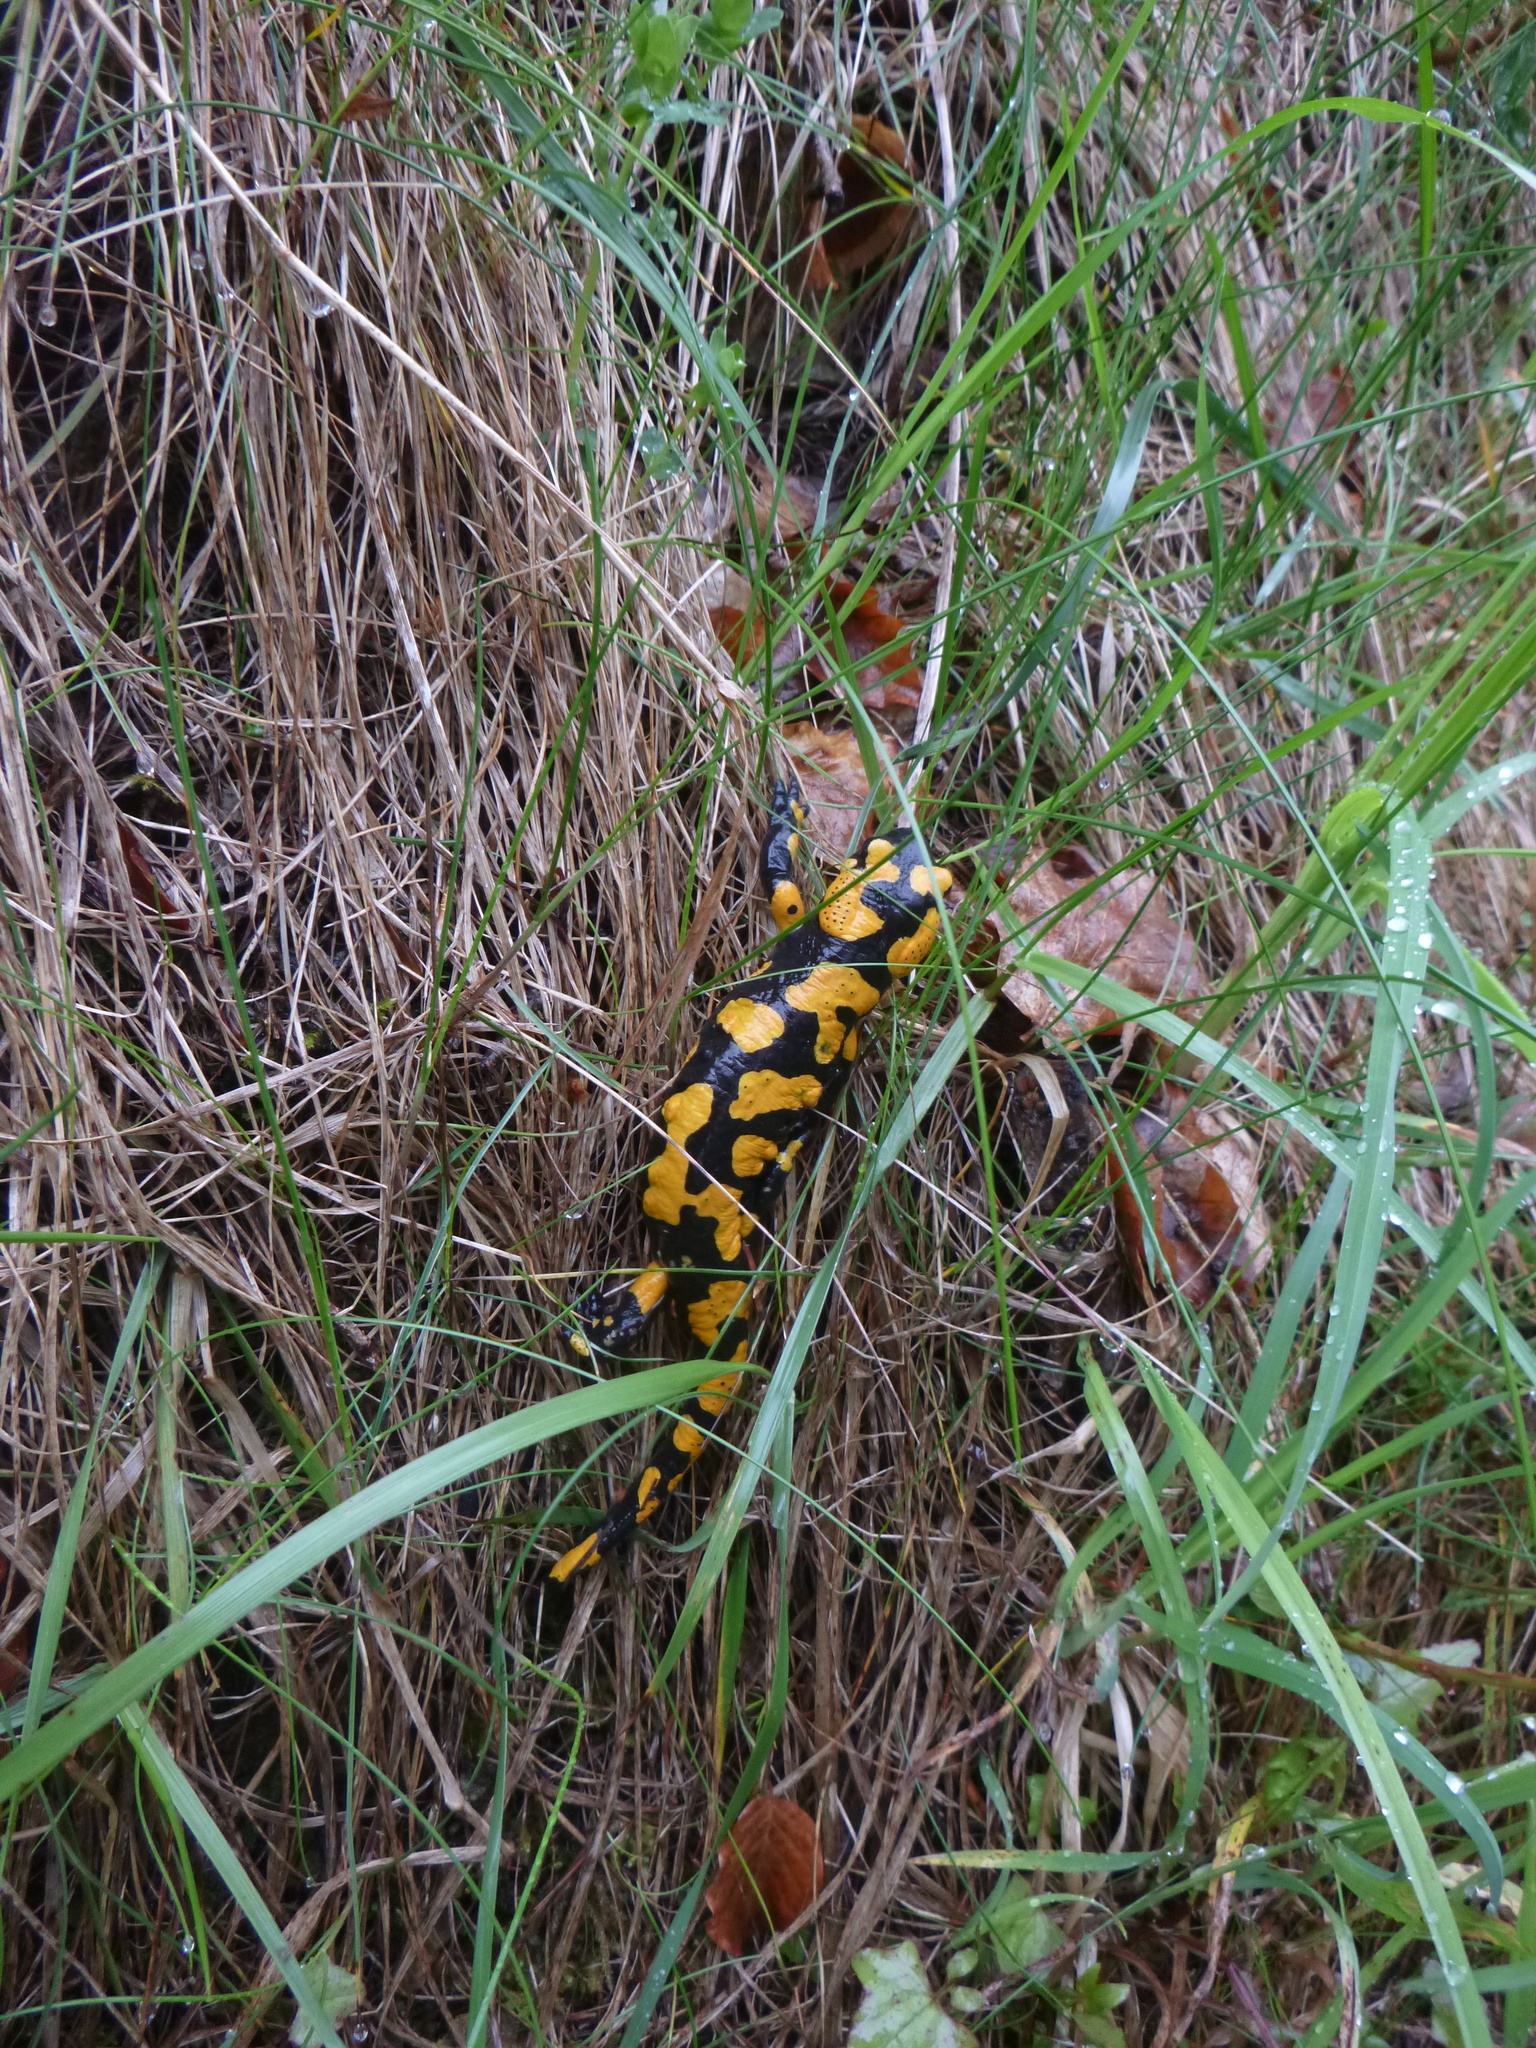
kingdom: Animalia
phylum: Chordata
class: Amphibia
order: Caudata
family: Salamandridae
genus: Salamandra
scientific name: Salamandra salamandra
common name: Fire salamander
